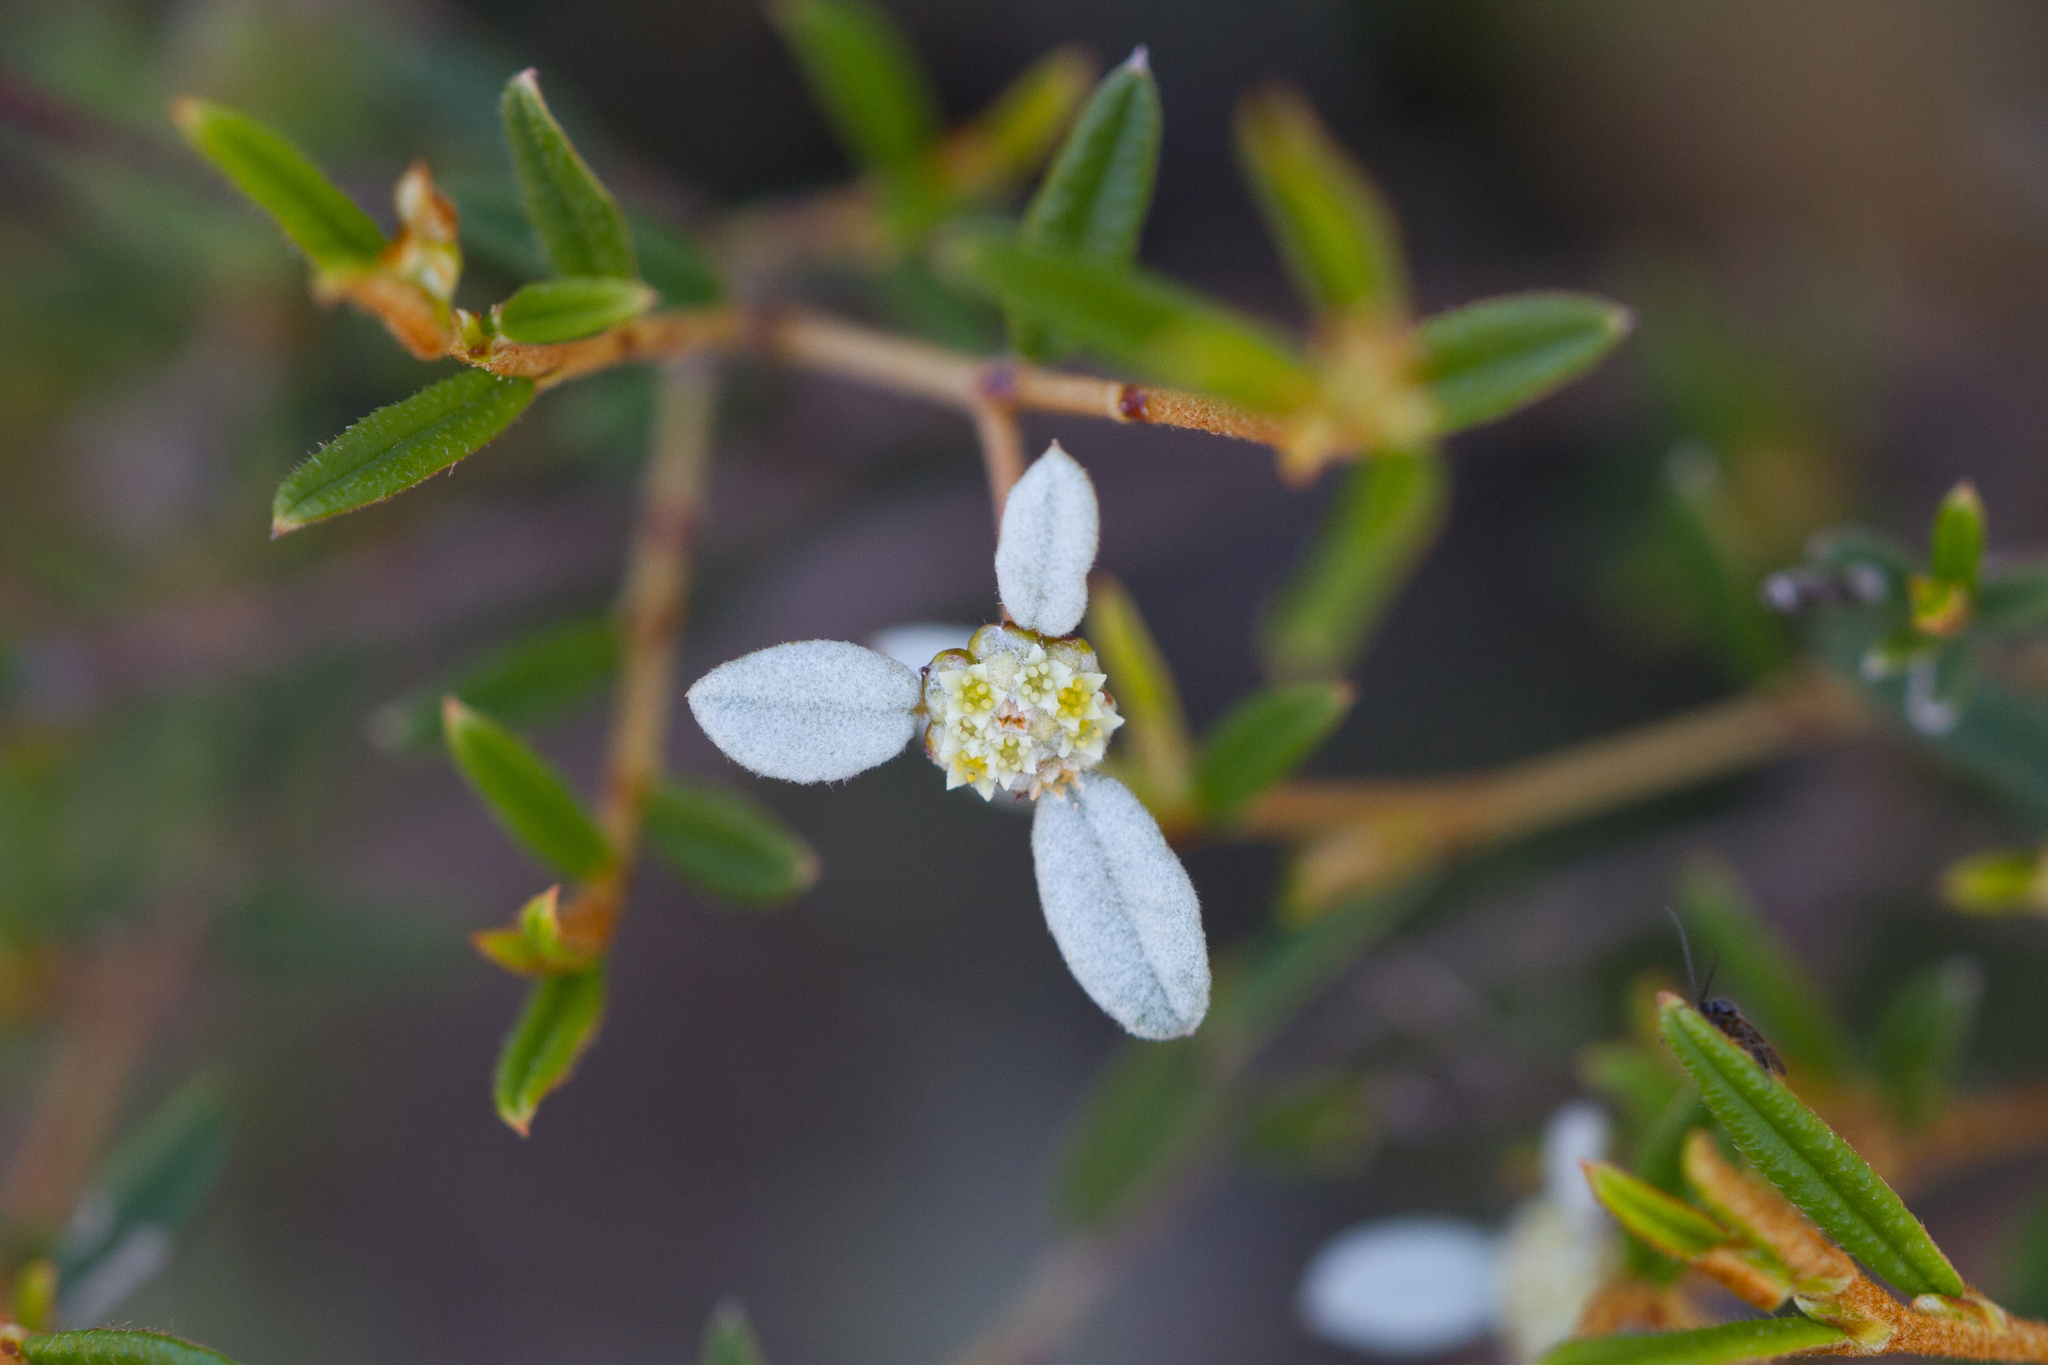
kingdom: Plantae
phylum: Tracheophyta
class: Magnoliopsida
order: Rosales
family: Rhamnaceae
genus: Spyridium
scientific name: Spyridium vexilliferum
